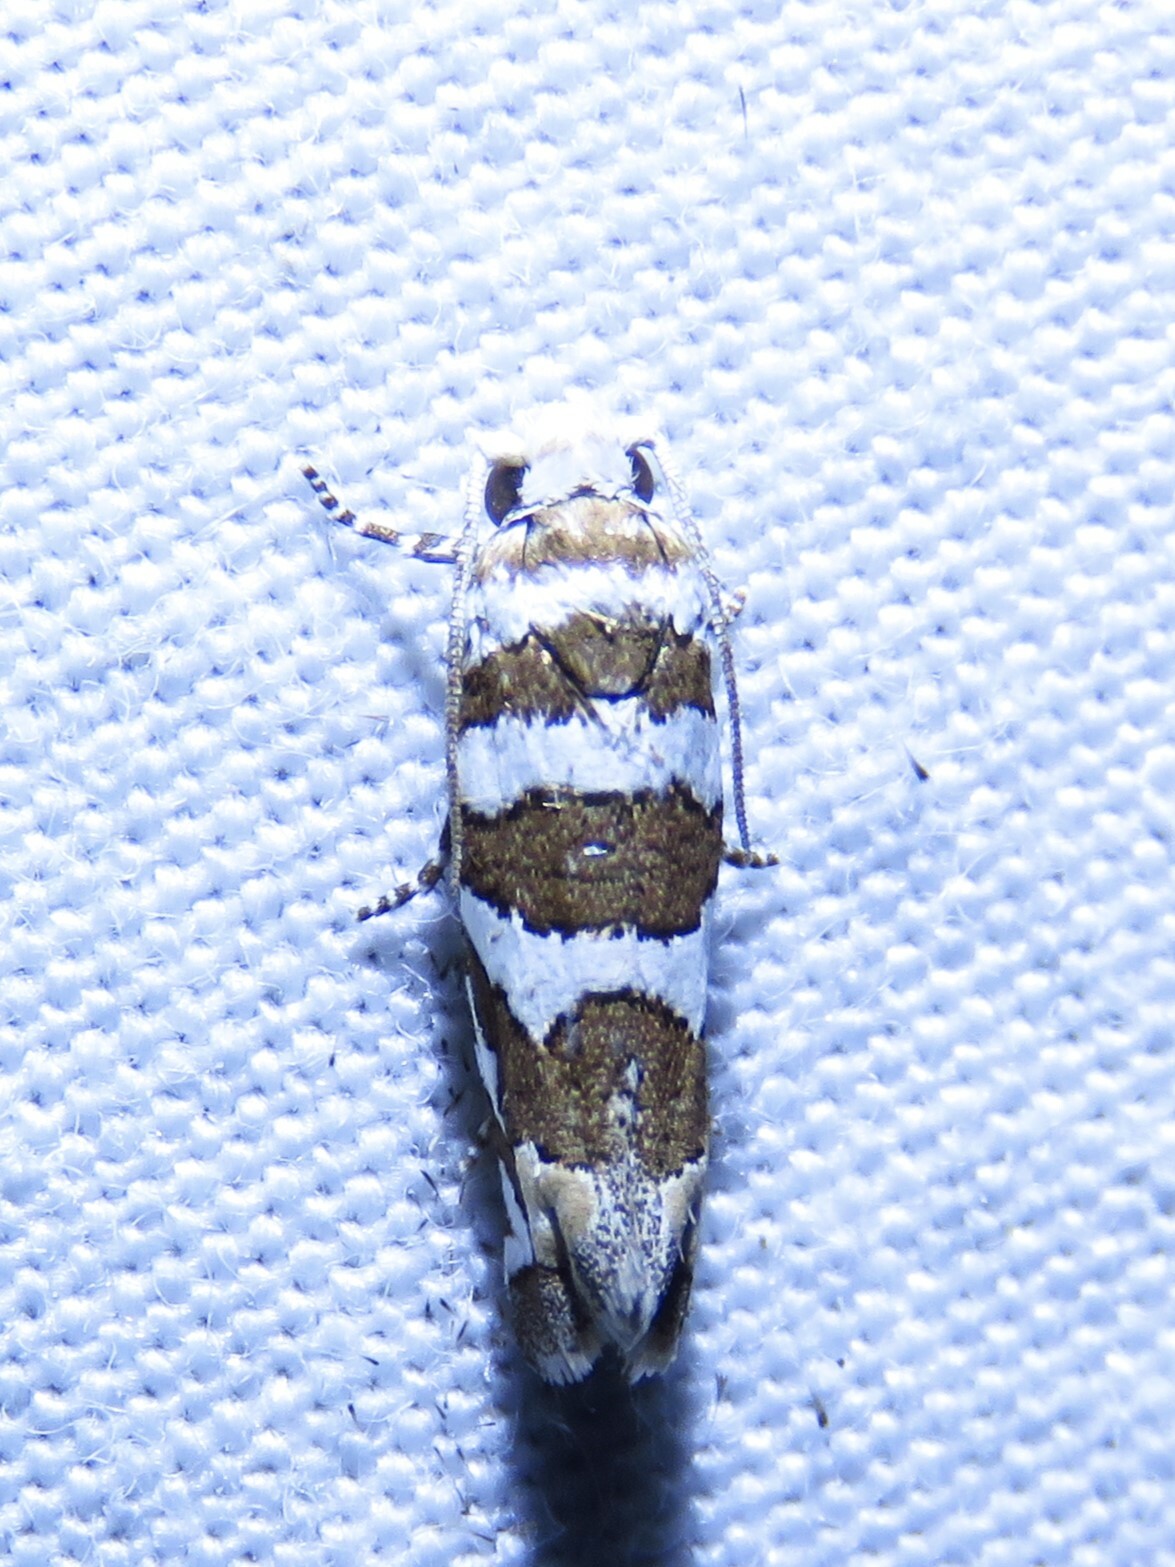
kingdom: Animalia
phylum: Arthropoda
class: Insecta
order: Lepidoptera
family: Tortricidae
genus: Pelochrista
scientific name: Pelochrista robinsonana
